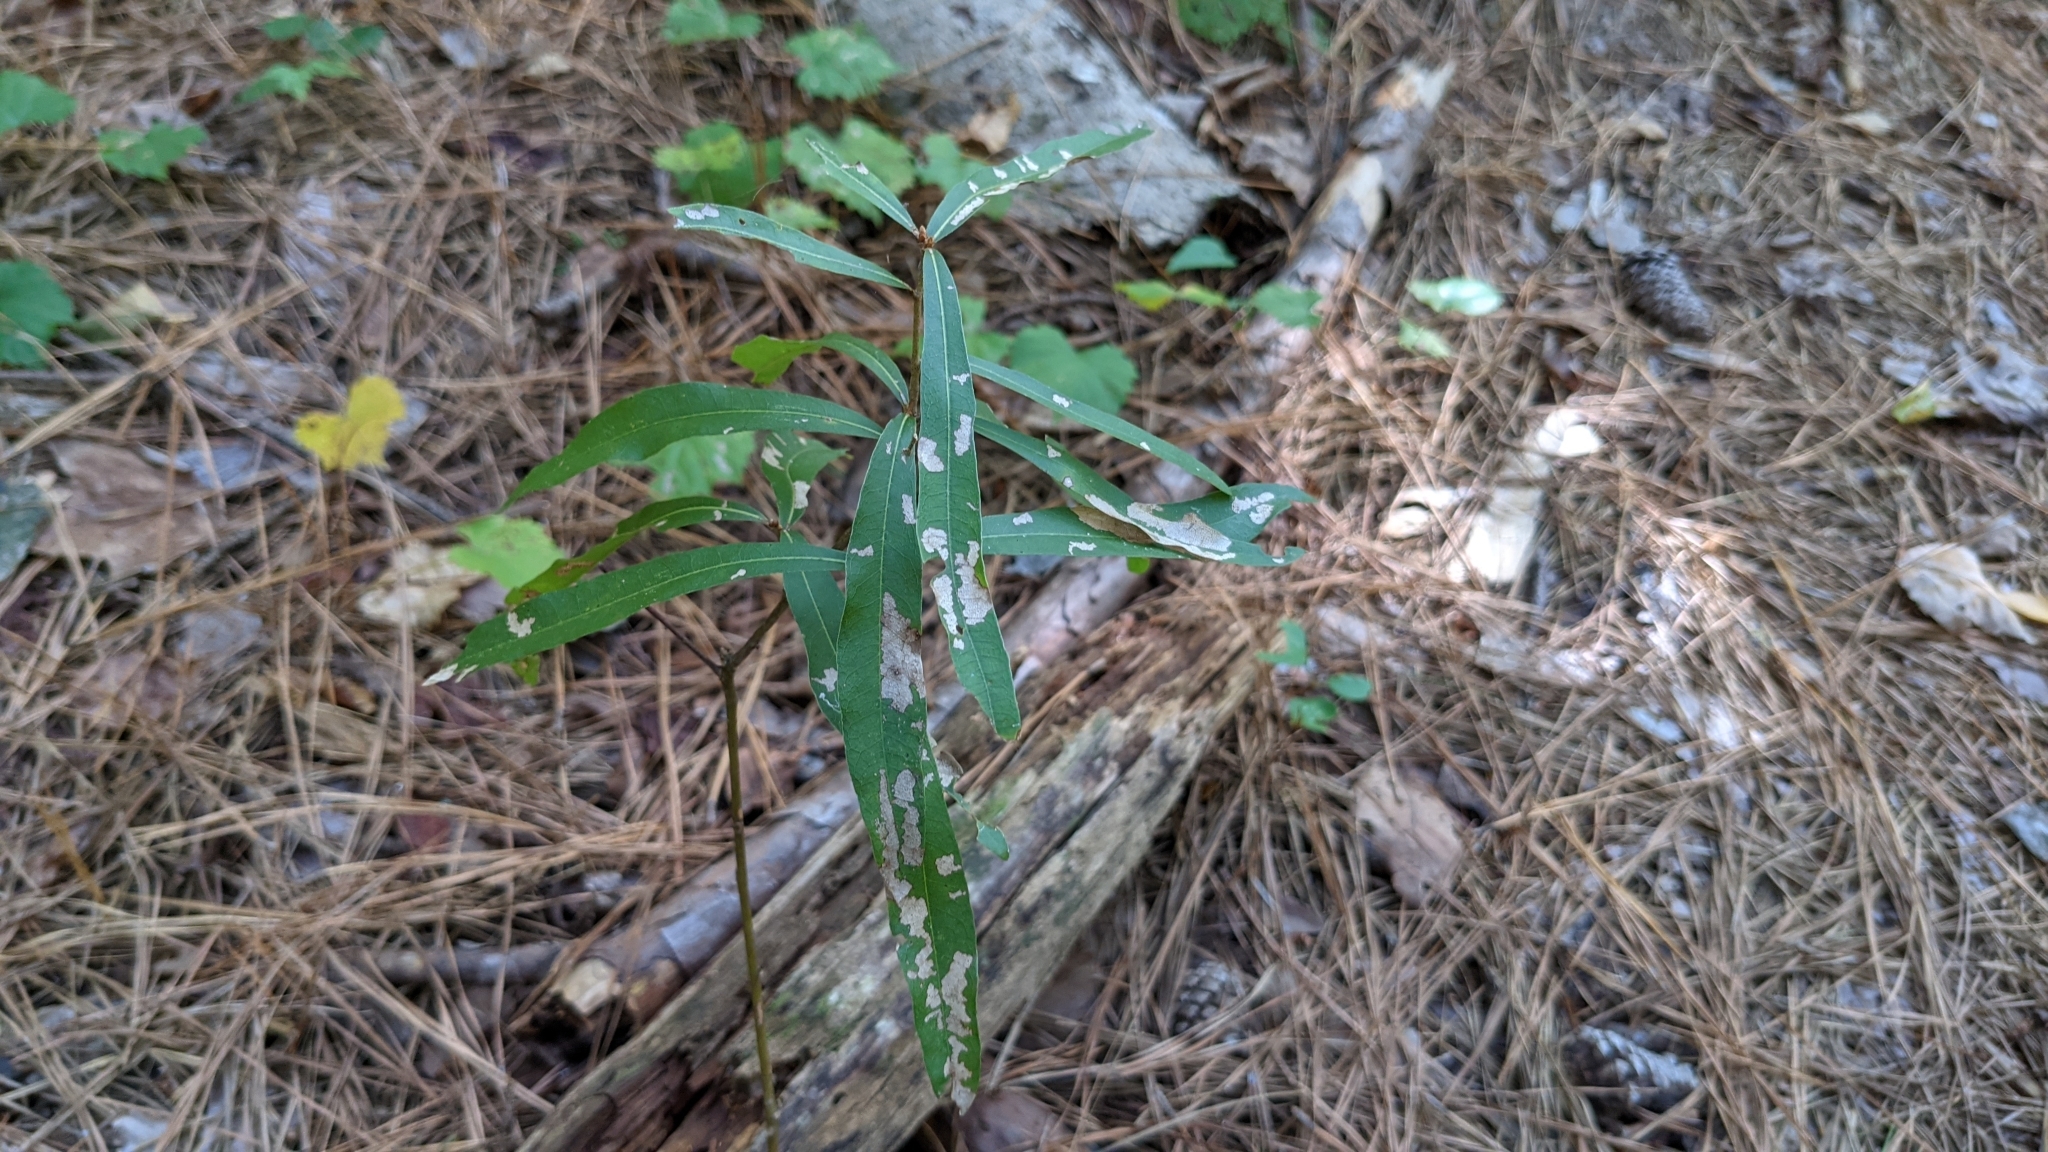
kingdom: Plantae
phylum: Tracheophyta
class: Magnoliopsida
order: Fagales
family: Fagaceae
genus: Quercus
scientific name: Quercus phellos
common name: Willow oak
